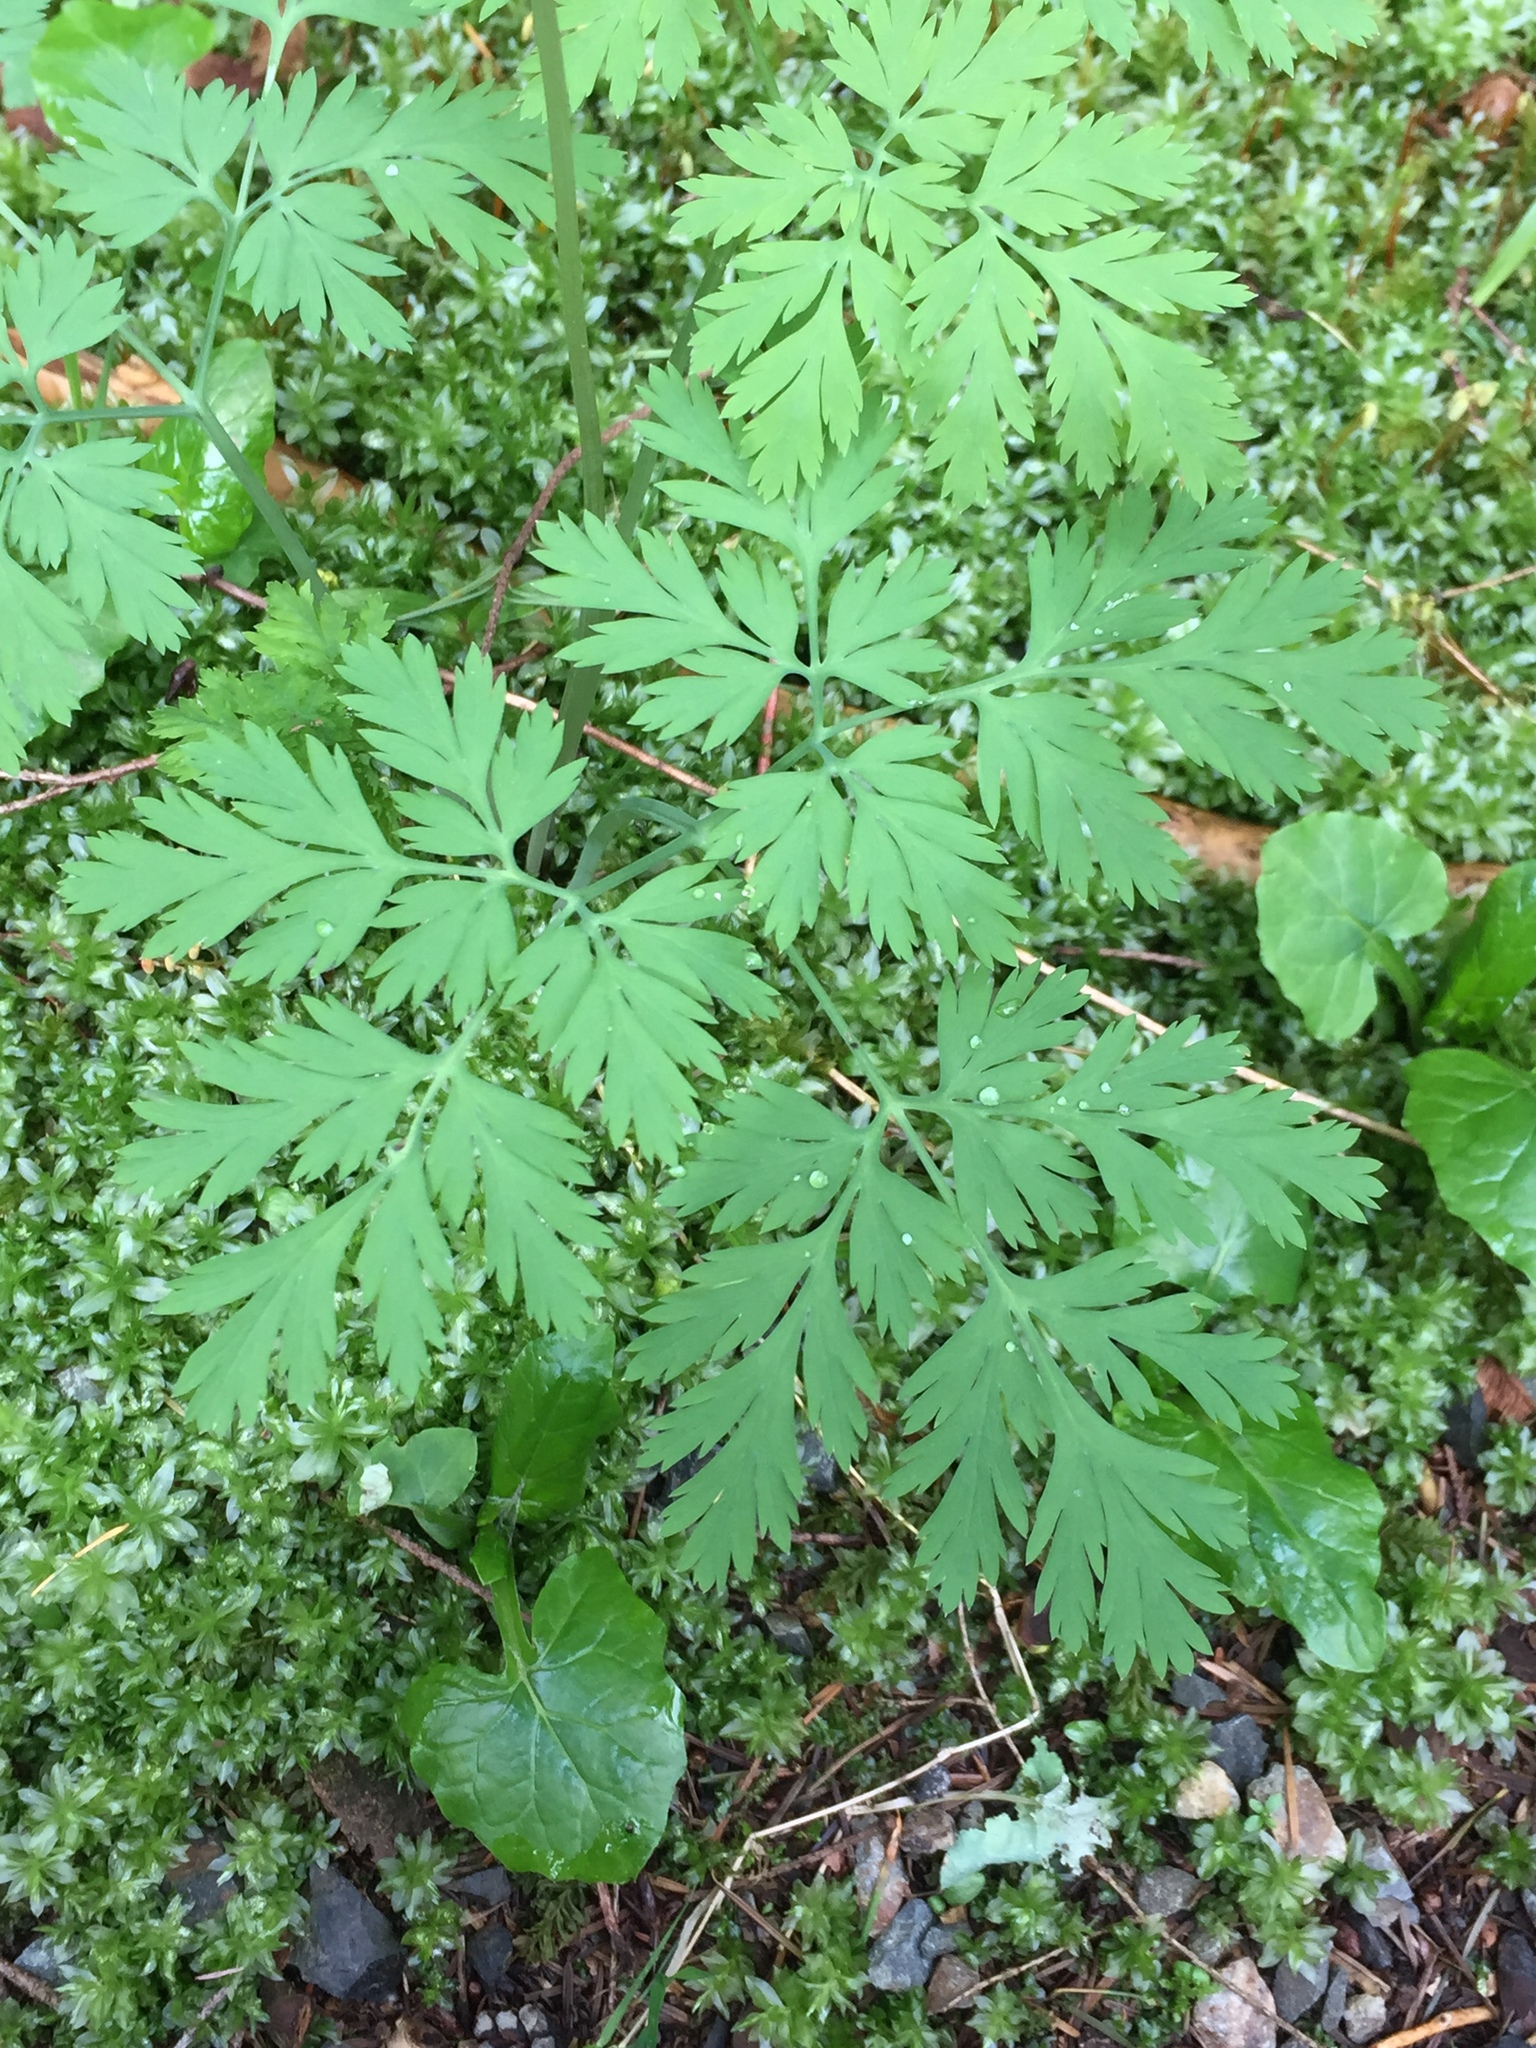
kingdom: Plantae
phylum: Tracheophyta
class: Magnoliopsida
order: Ranunculales
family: Papaveraceae
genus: Dicentra
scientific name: Dicentra formosa
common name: Bleeding-heart
